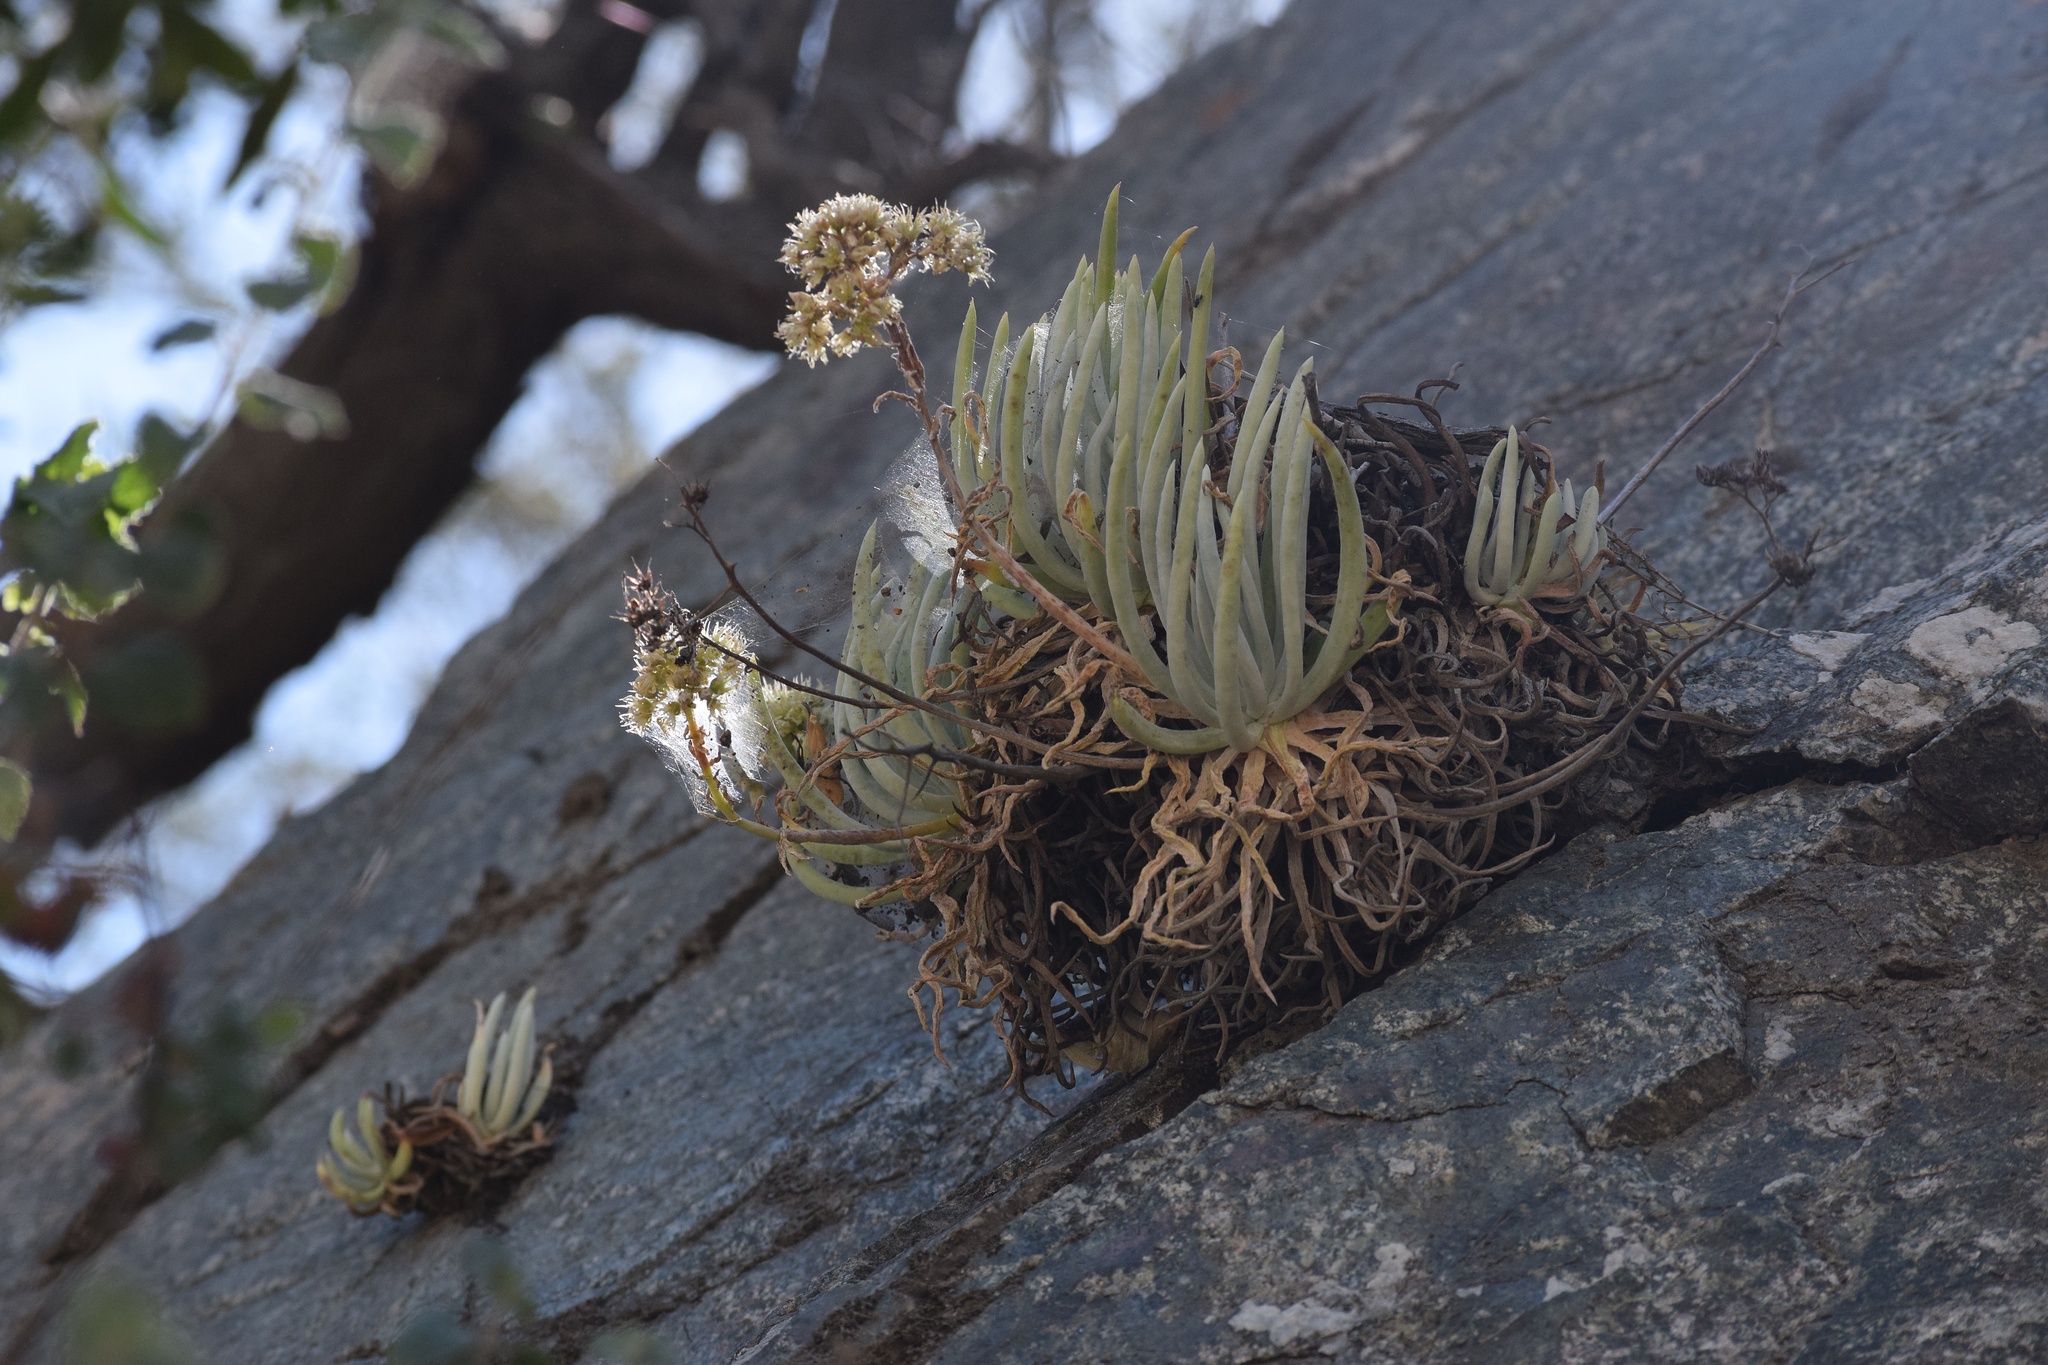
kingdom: Plantae
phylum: Tracheophyta
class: Magnoliopsida
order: Saxifragales
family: Crassulaceae
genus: Dudleya
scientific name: Dudleya densiflora
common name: San gabriel mountains dudleya
